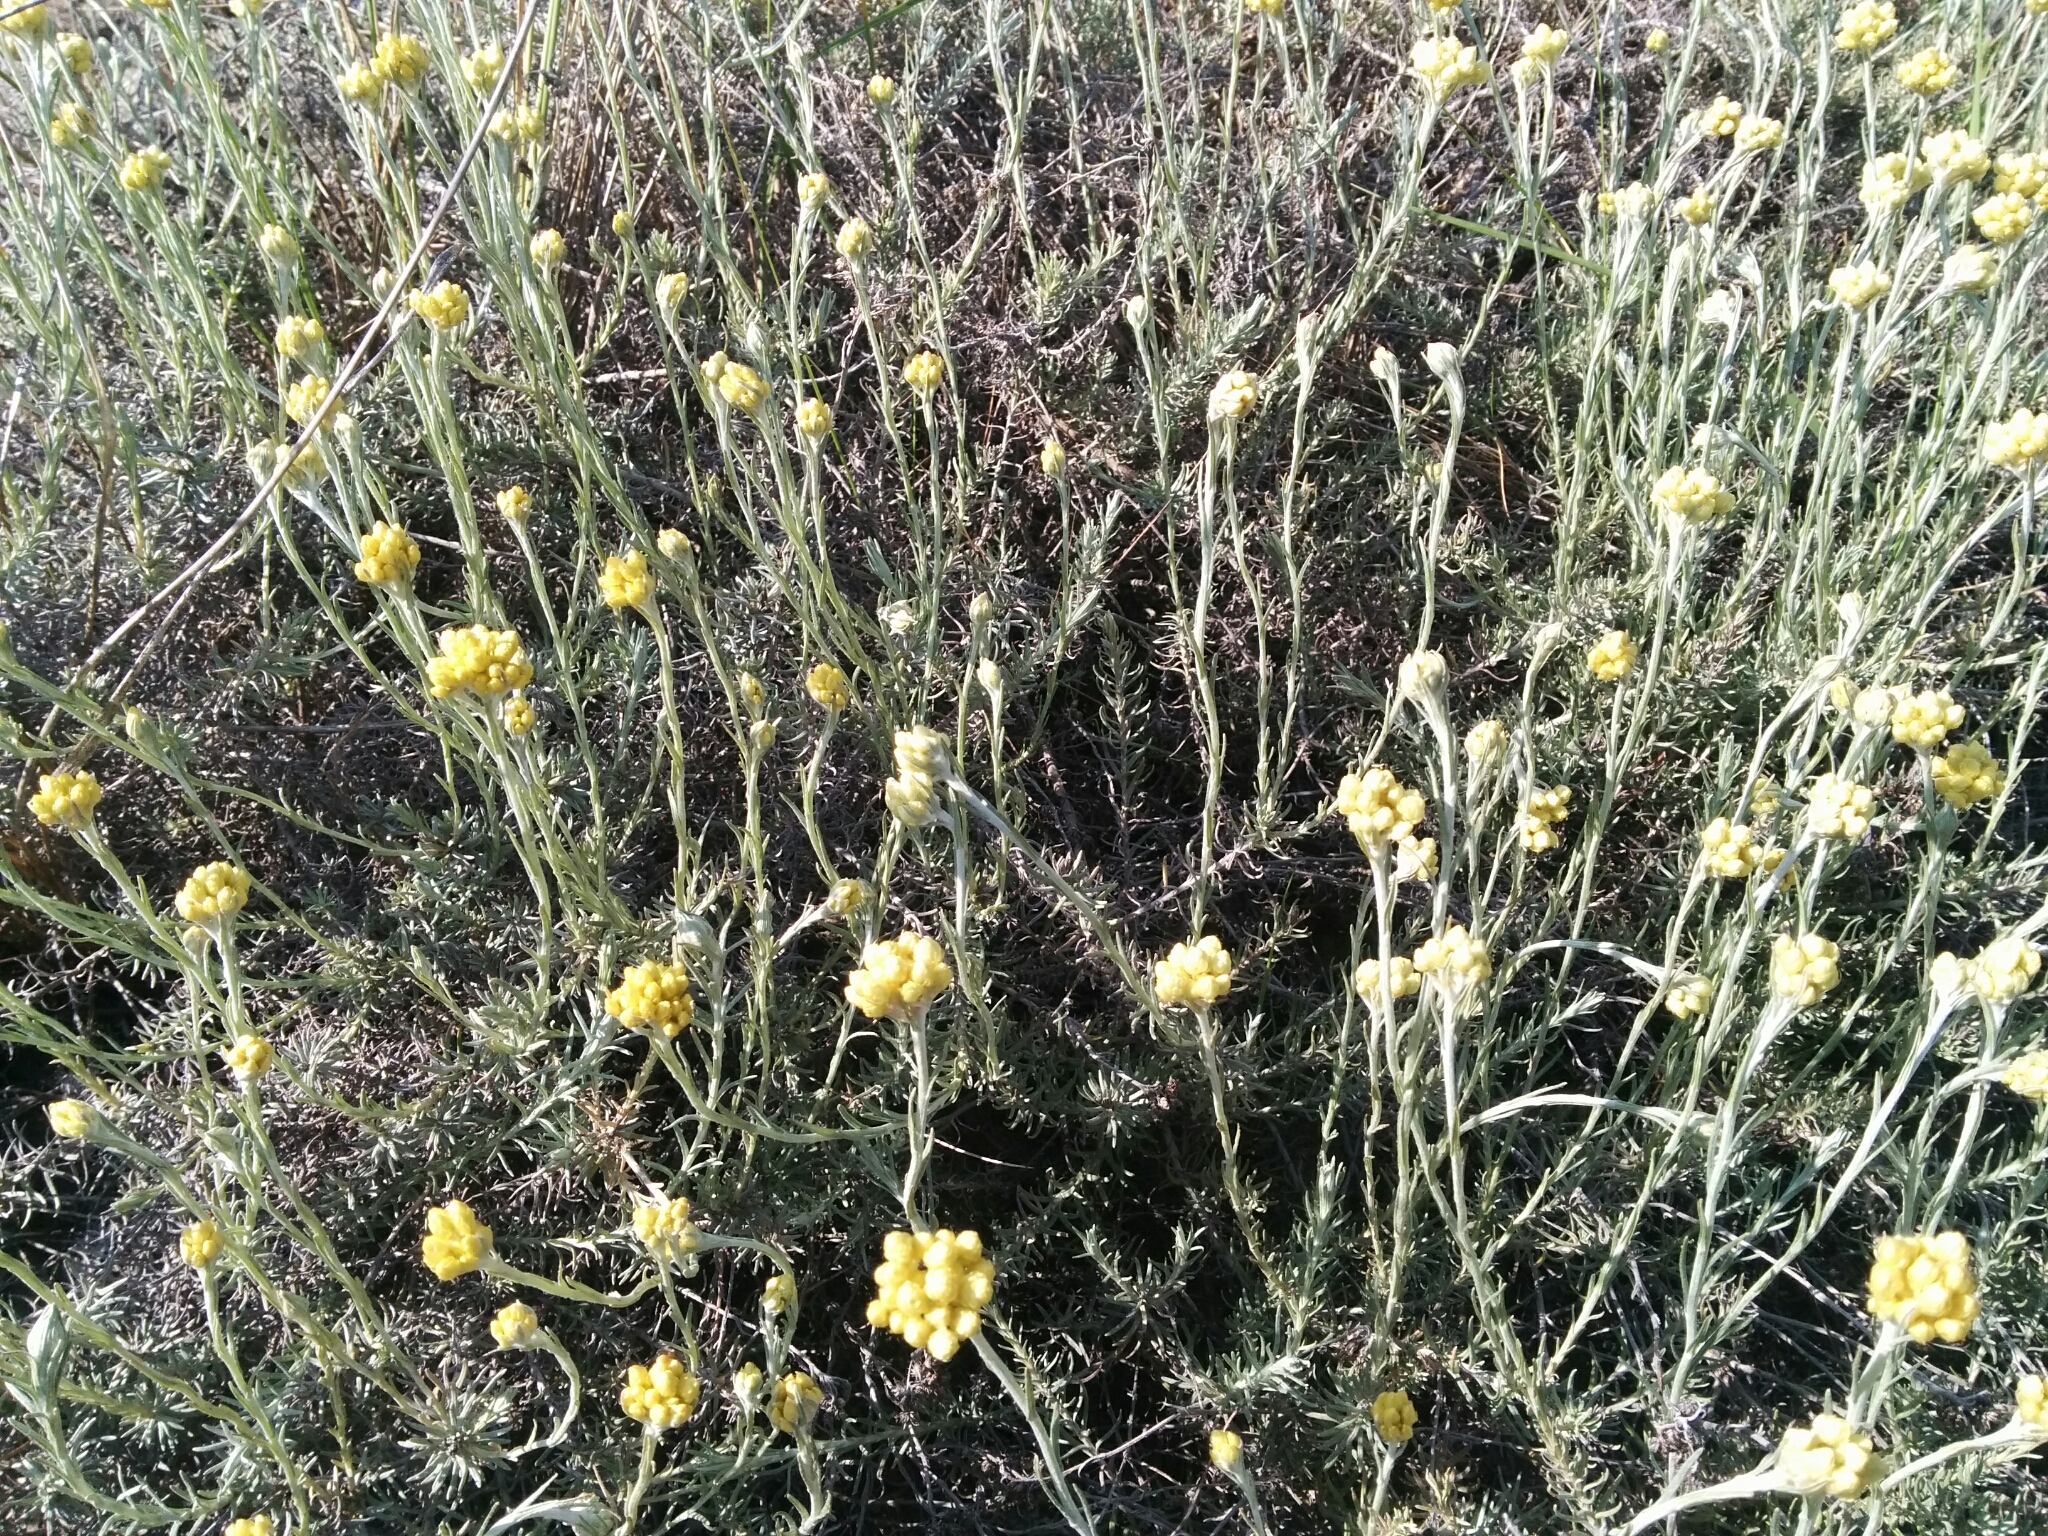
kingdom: Plantae
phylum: Tracheophyta
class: Magnoliopsida
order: Asterales
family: Asteraceae
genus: Helichrysum
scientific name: Helichrysum stoechas
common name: Goldilocks
